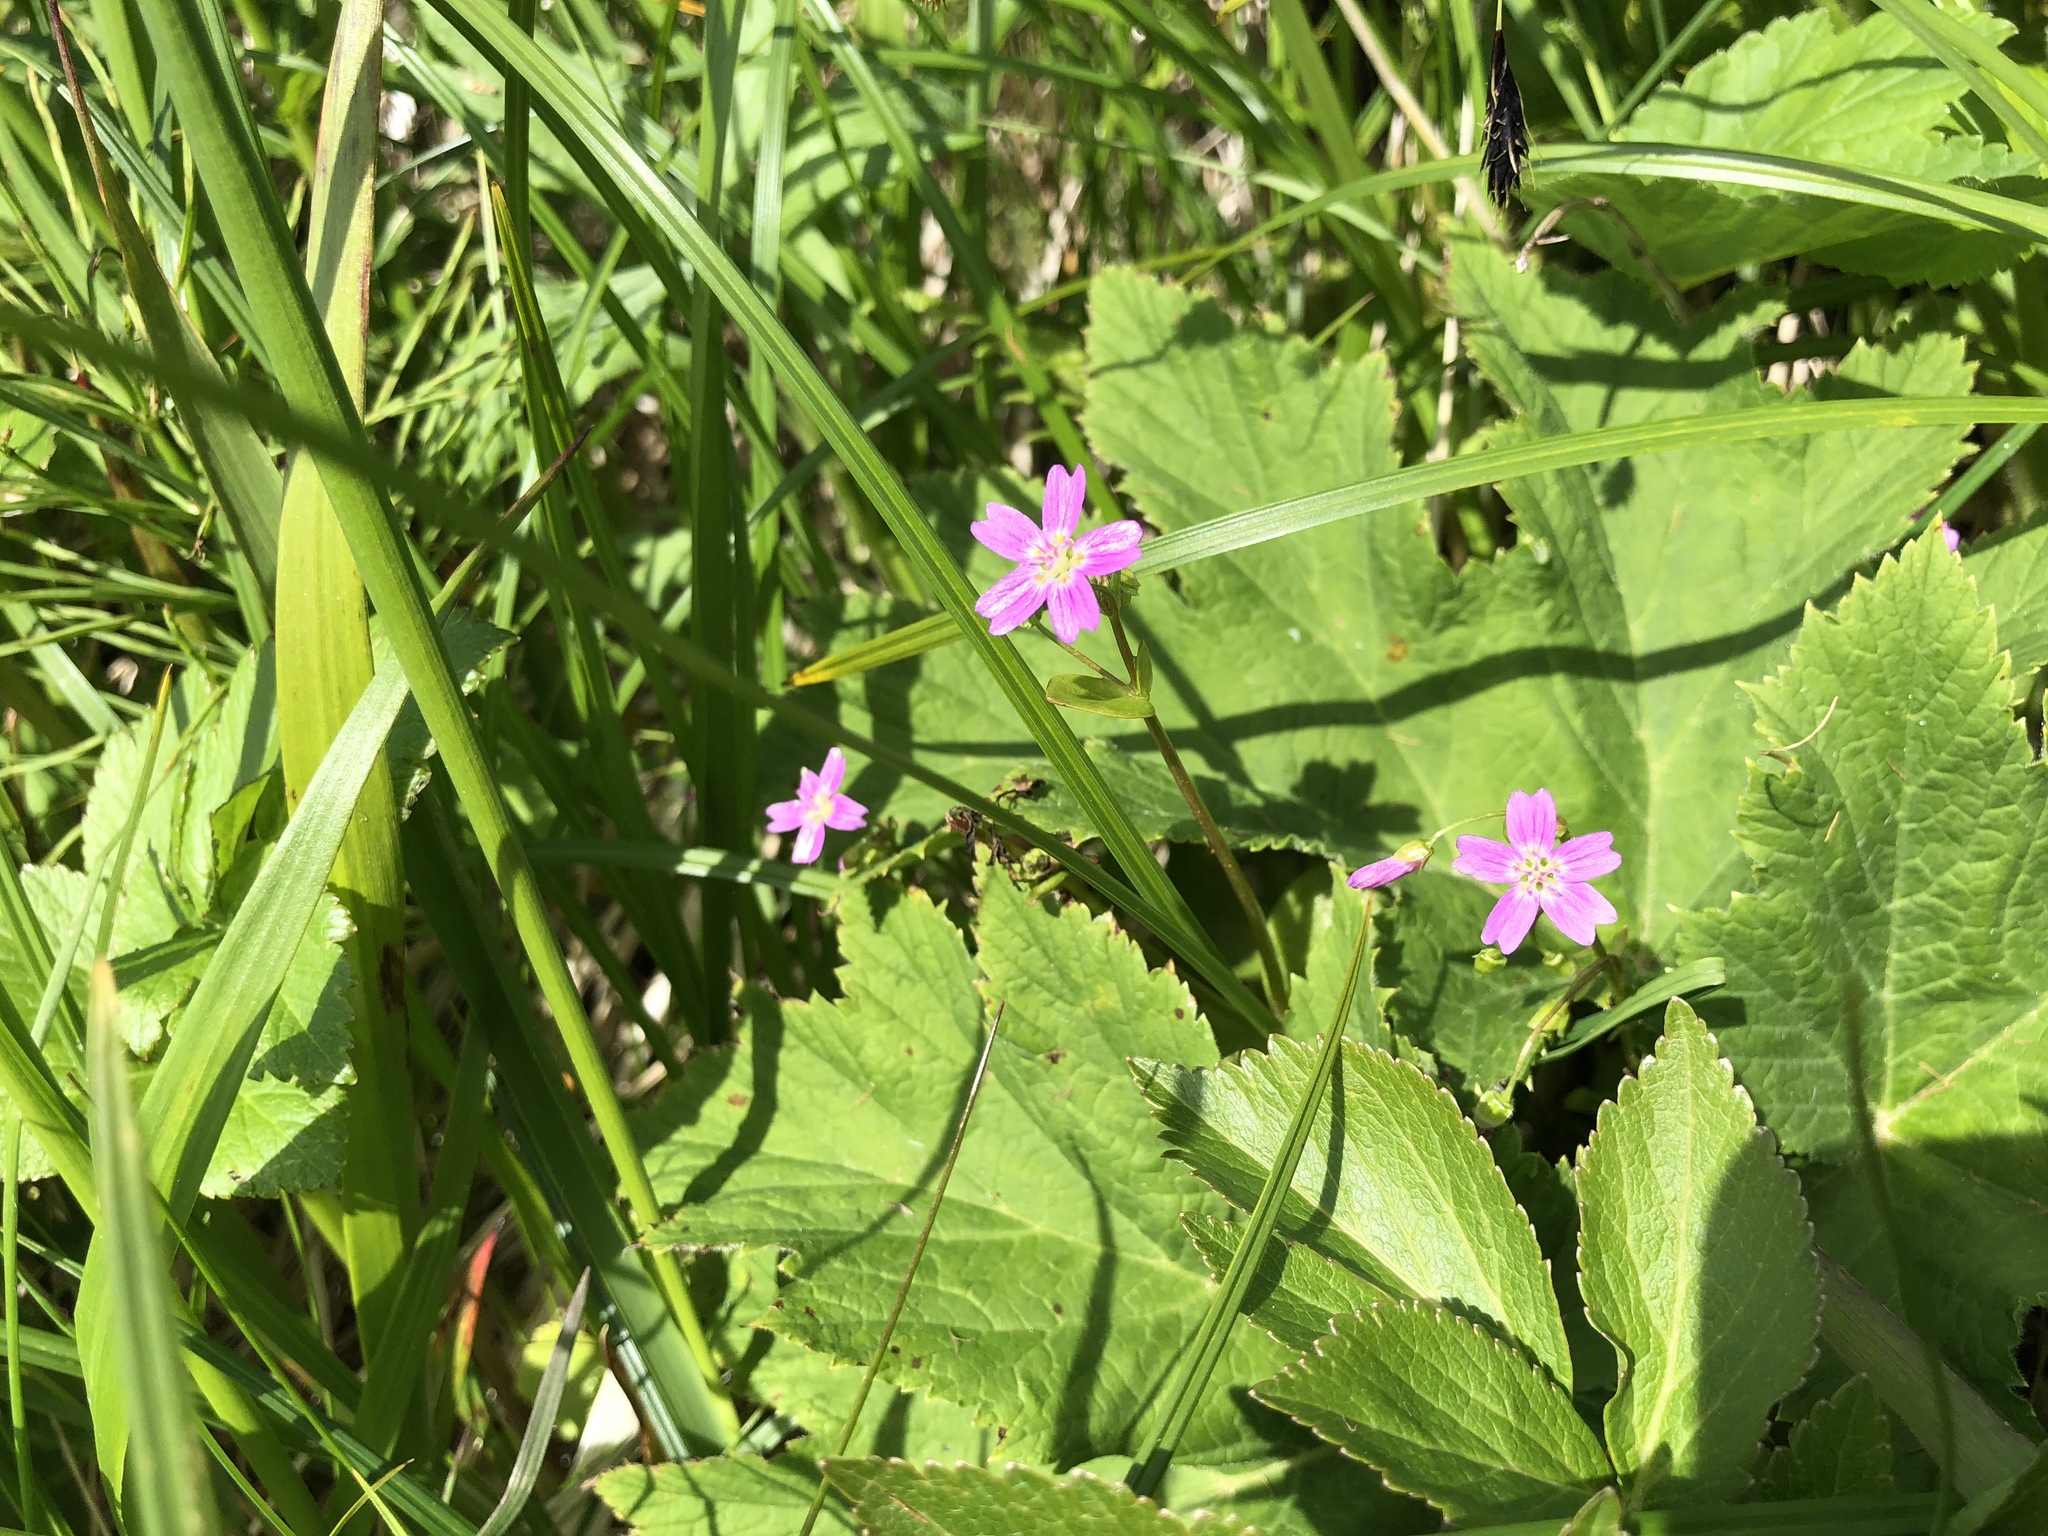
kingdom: Plantae
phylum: Tracheophyta
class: Magnoliopsida
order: Caryophyllales
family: Montiaceae
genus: Claytonia
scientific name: Claytonia sibirica
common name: Pink purslane
